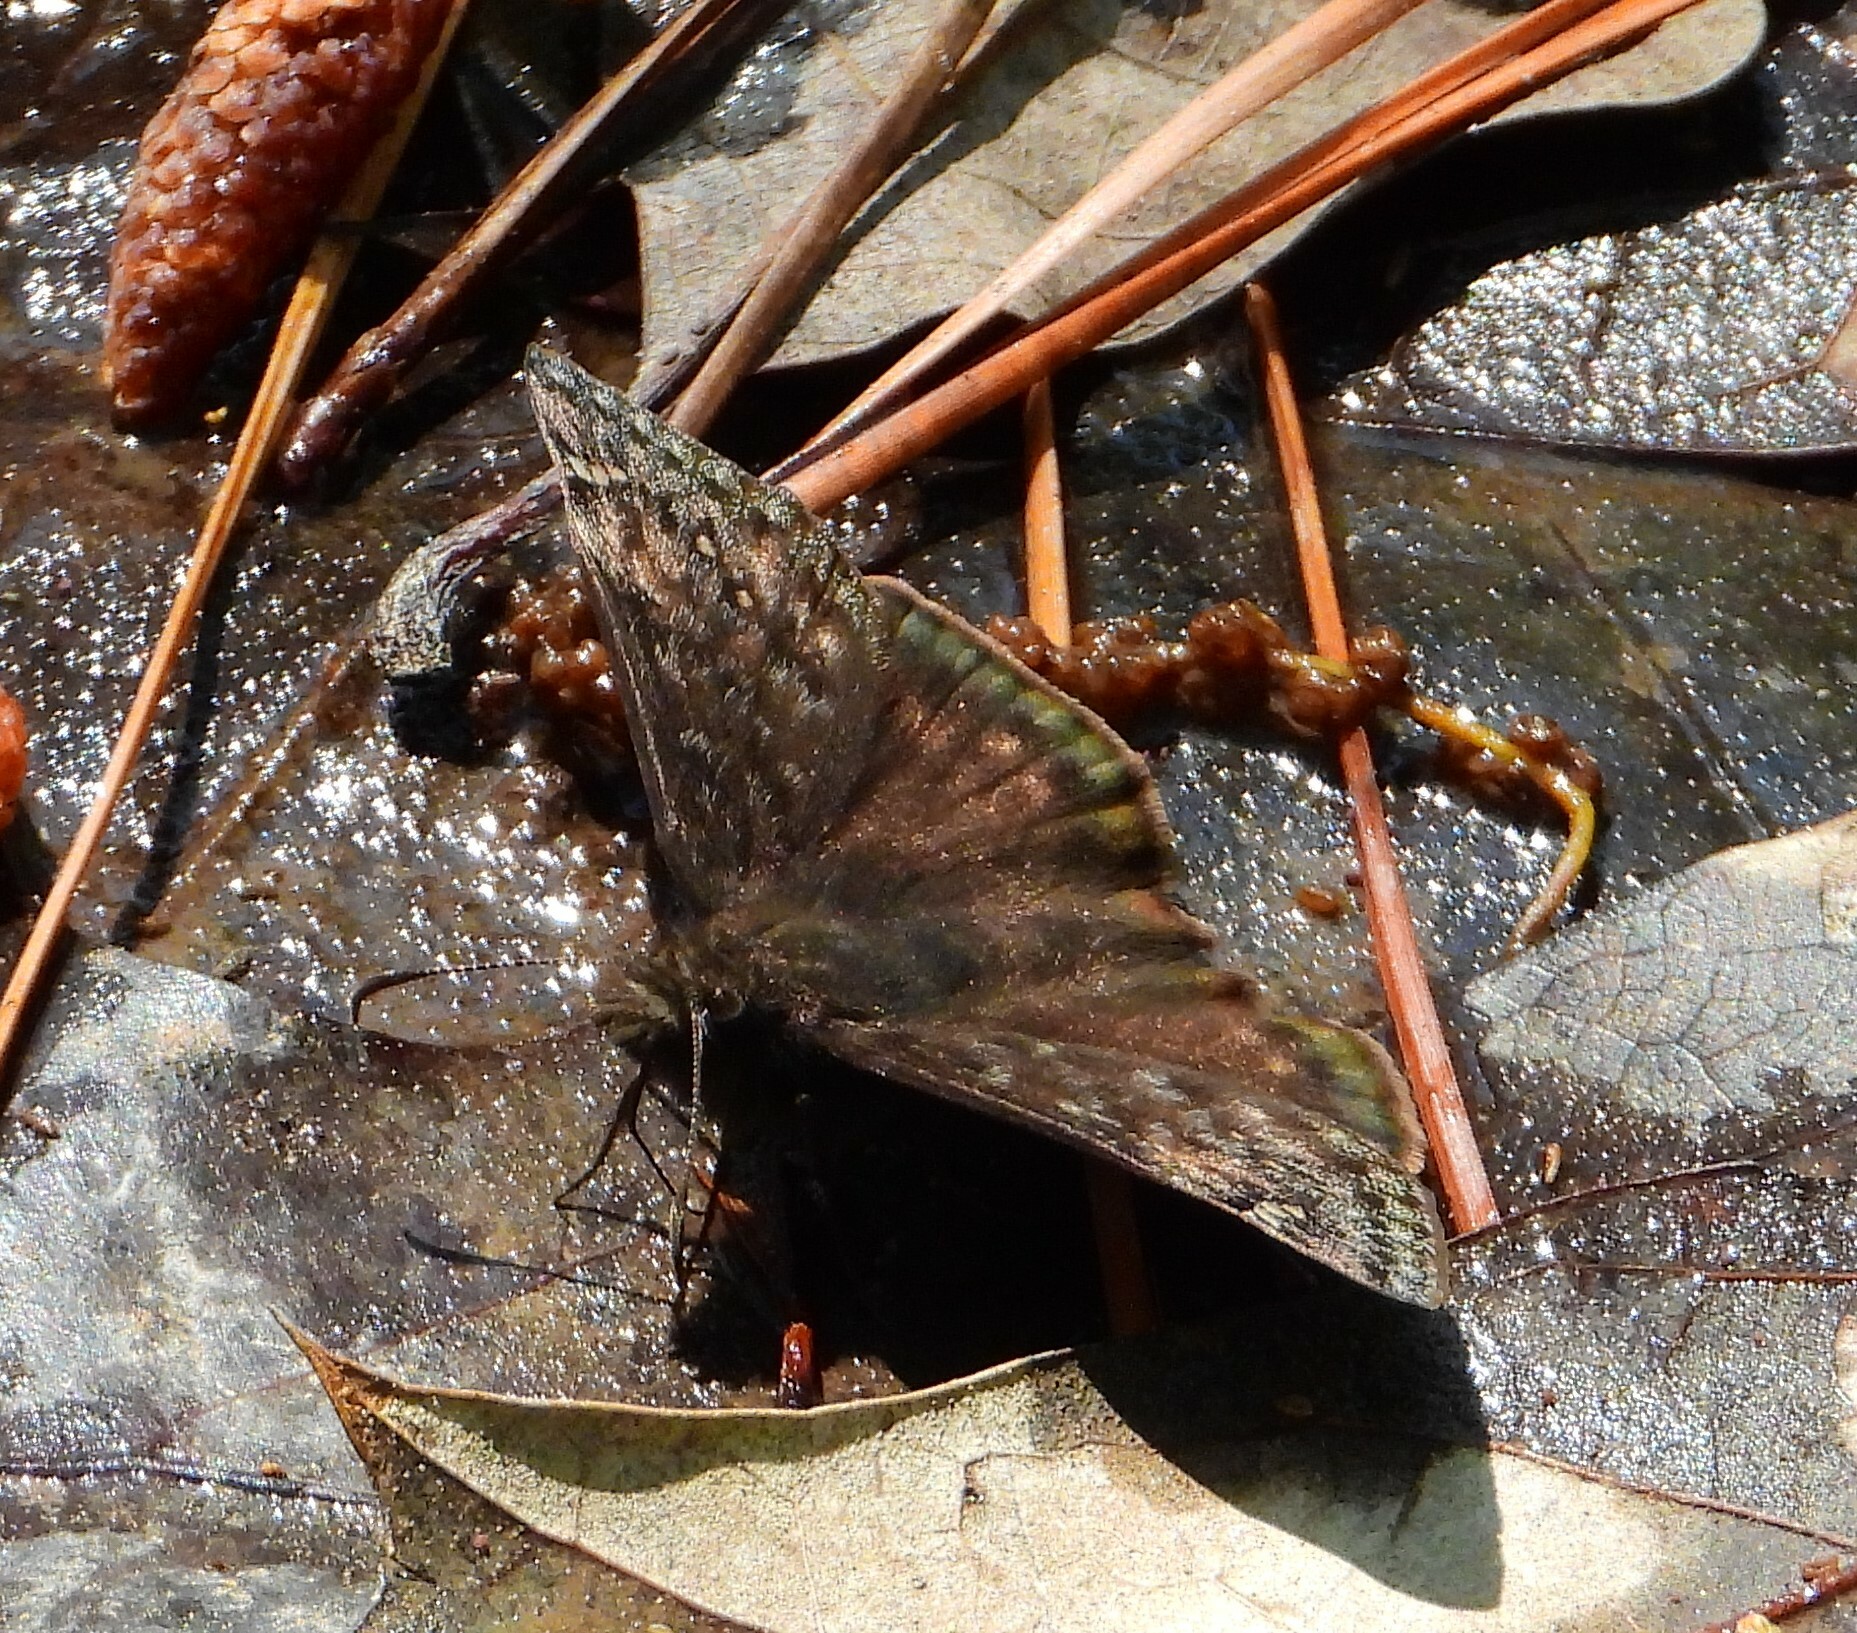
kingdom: Animalia
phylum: Arthropoda
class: Insecta
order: Lepidoptera
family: Hesperiidae
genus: Erynnis
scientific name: Erynnis juvenalis
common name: Juvenal's duskywing
